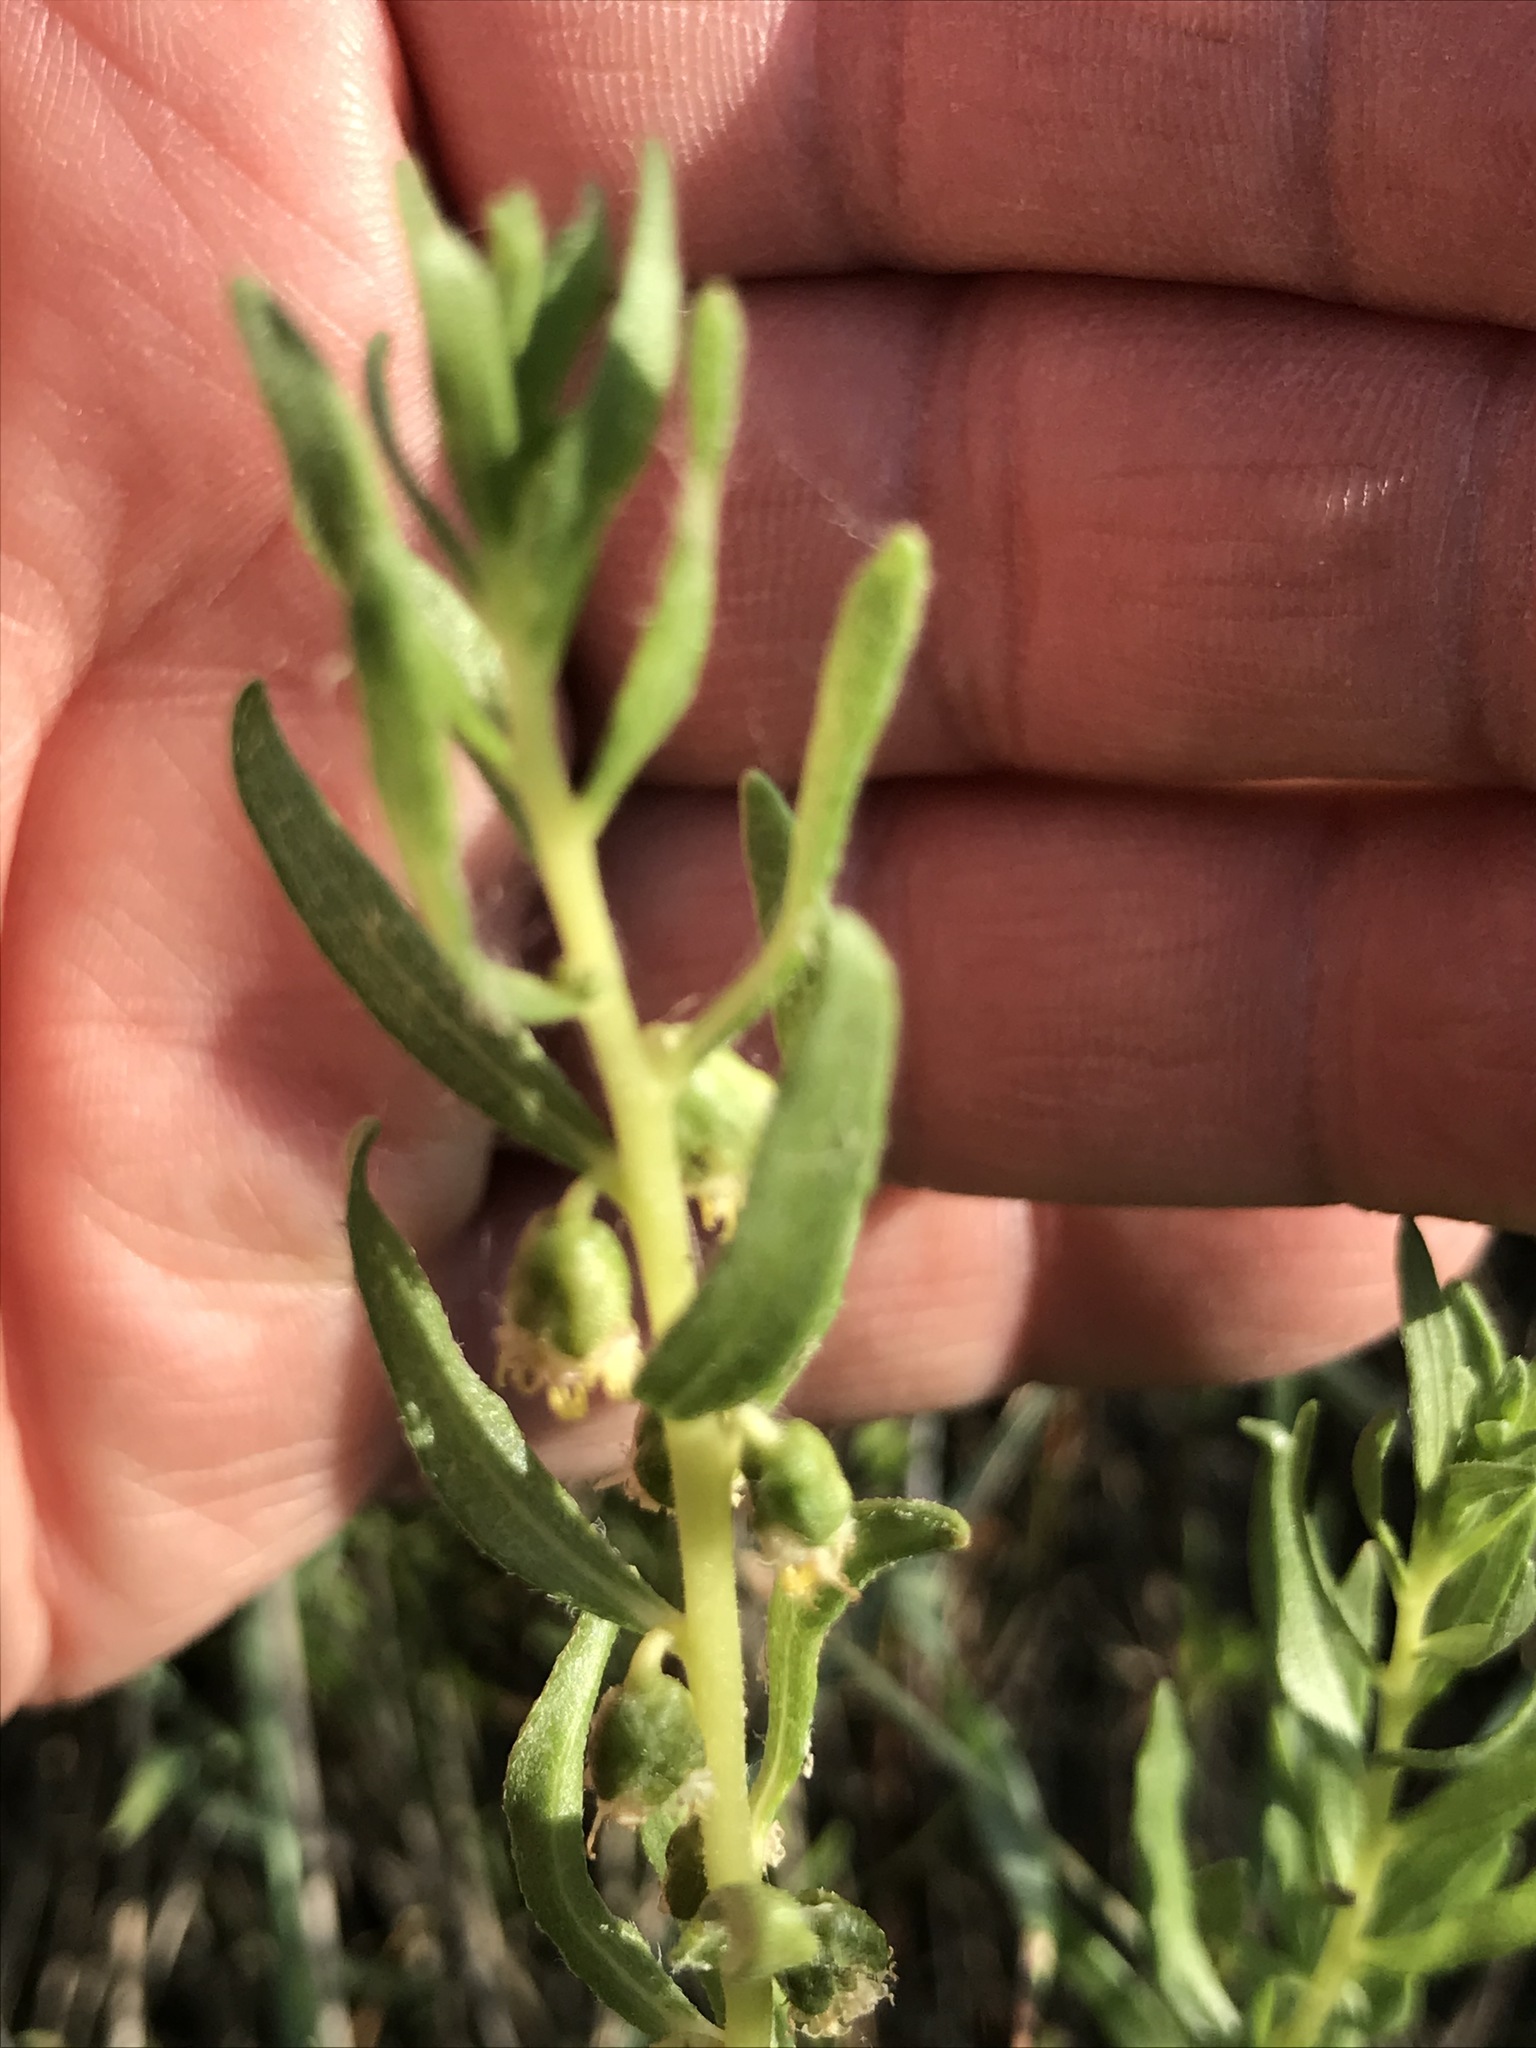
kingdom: Plantae
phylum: Tracheophyta
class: Magnoliopsida
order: Asterales
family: Asteraceae
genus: Iva
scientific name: Iva axillaris
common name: Poverty sumpweed
